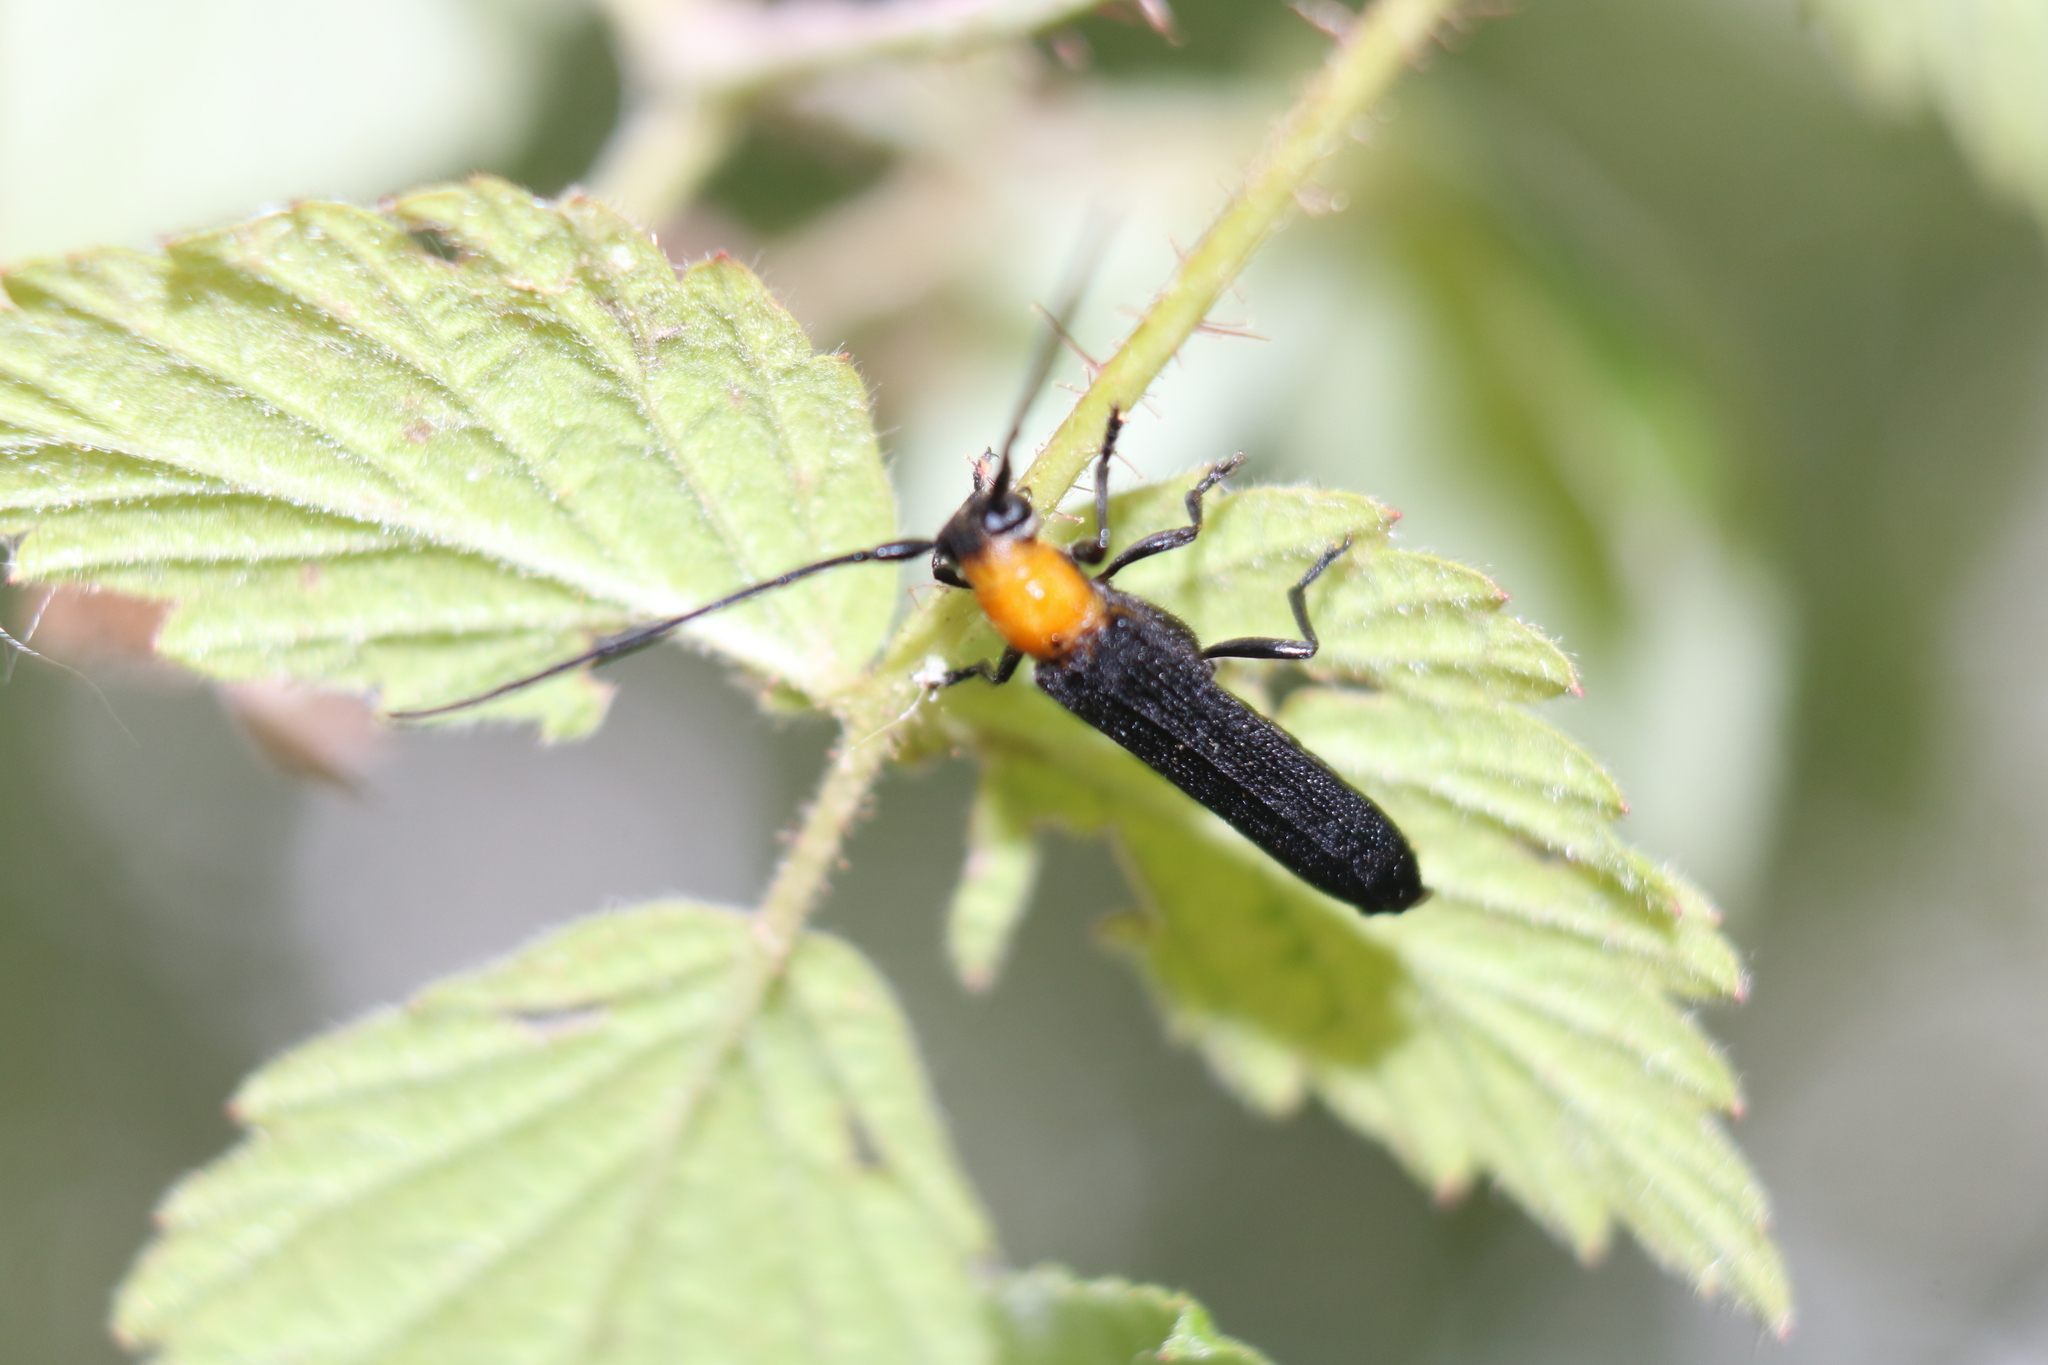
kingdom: Animalia
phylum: Arthropoda
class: Insecta
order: Coleoptera
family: Cerambycidae
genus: Oberea
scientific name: Oberea affinis
